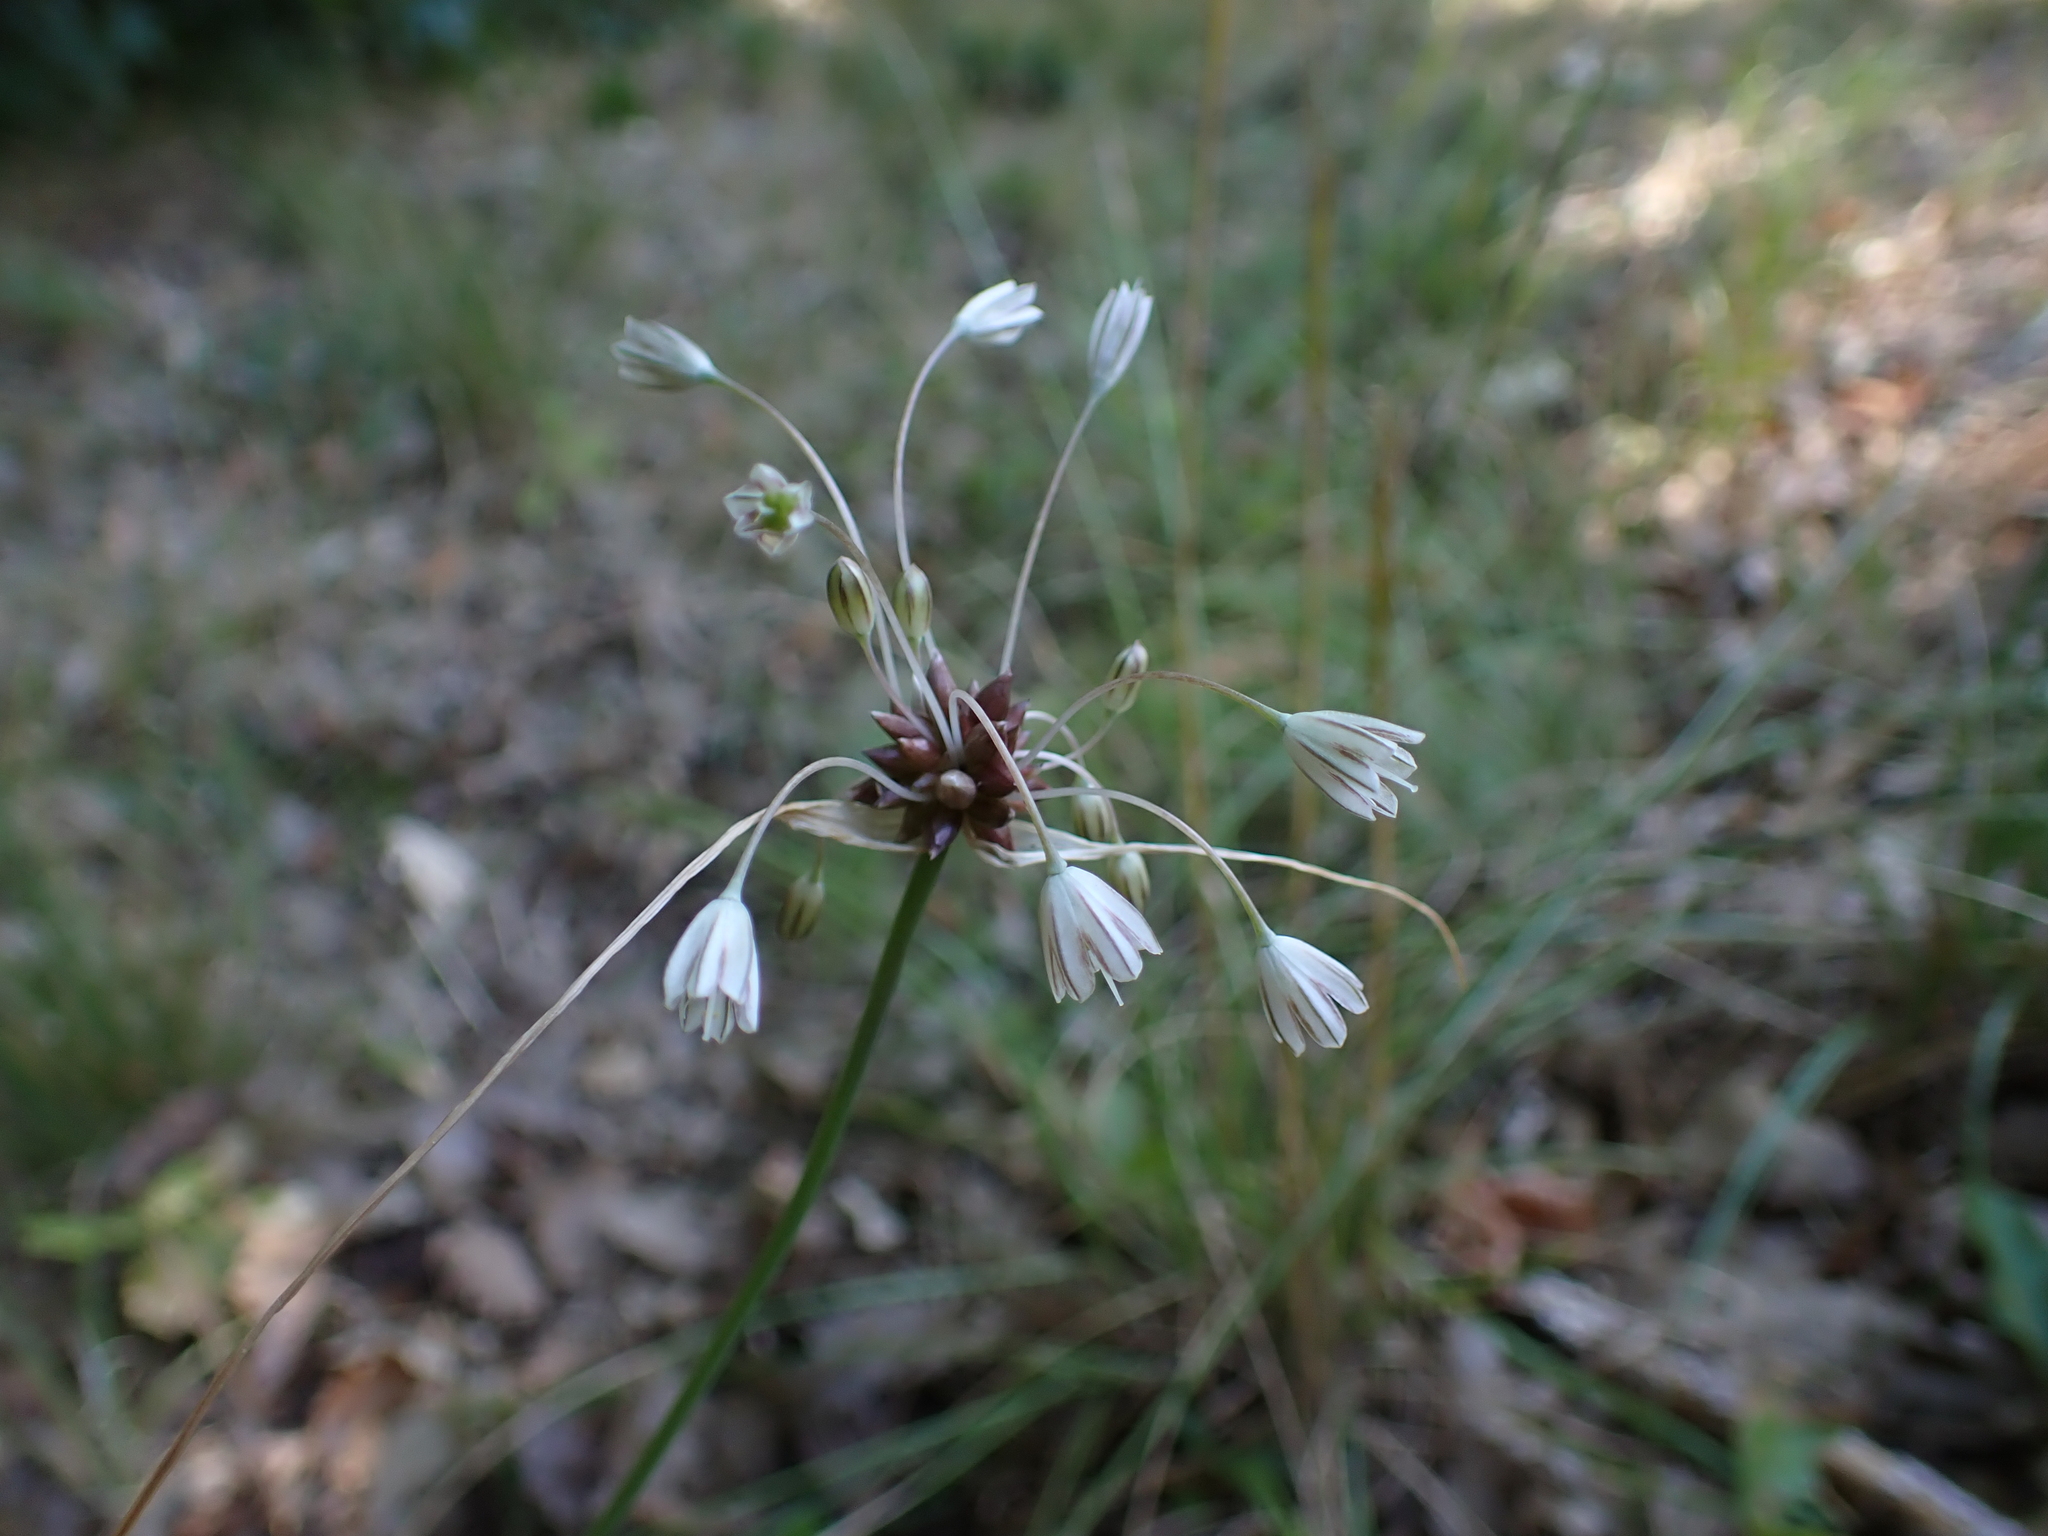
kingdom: Plantae
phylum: Tracheophyta
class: Liliopsida
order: Asparagales
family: Amaryllidaceae
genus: Allium
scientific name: Allium oleraceum
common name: Field garlic
